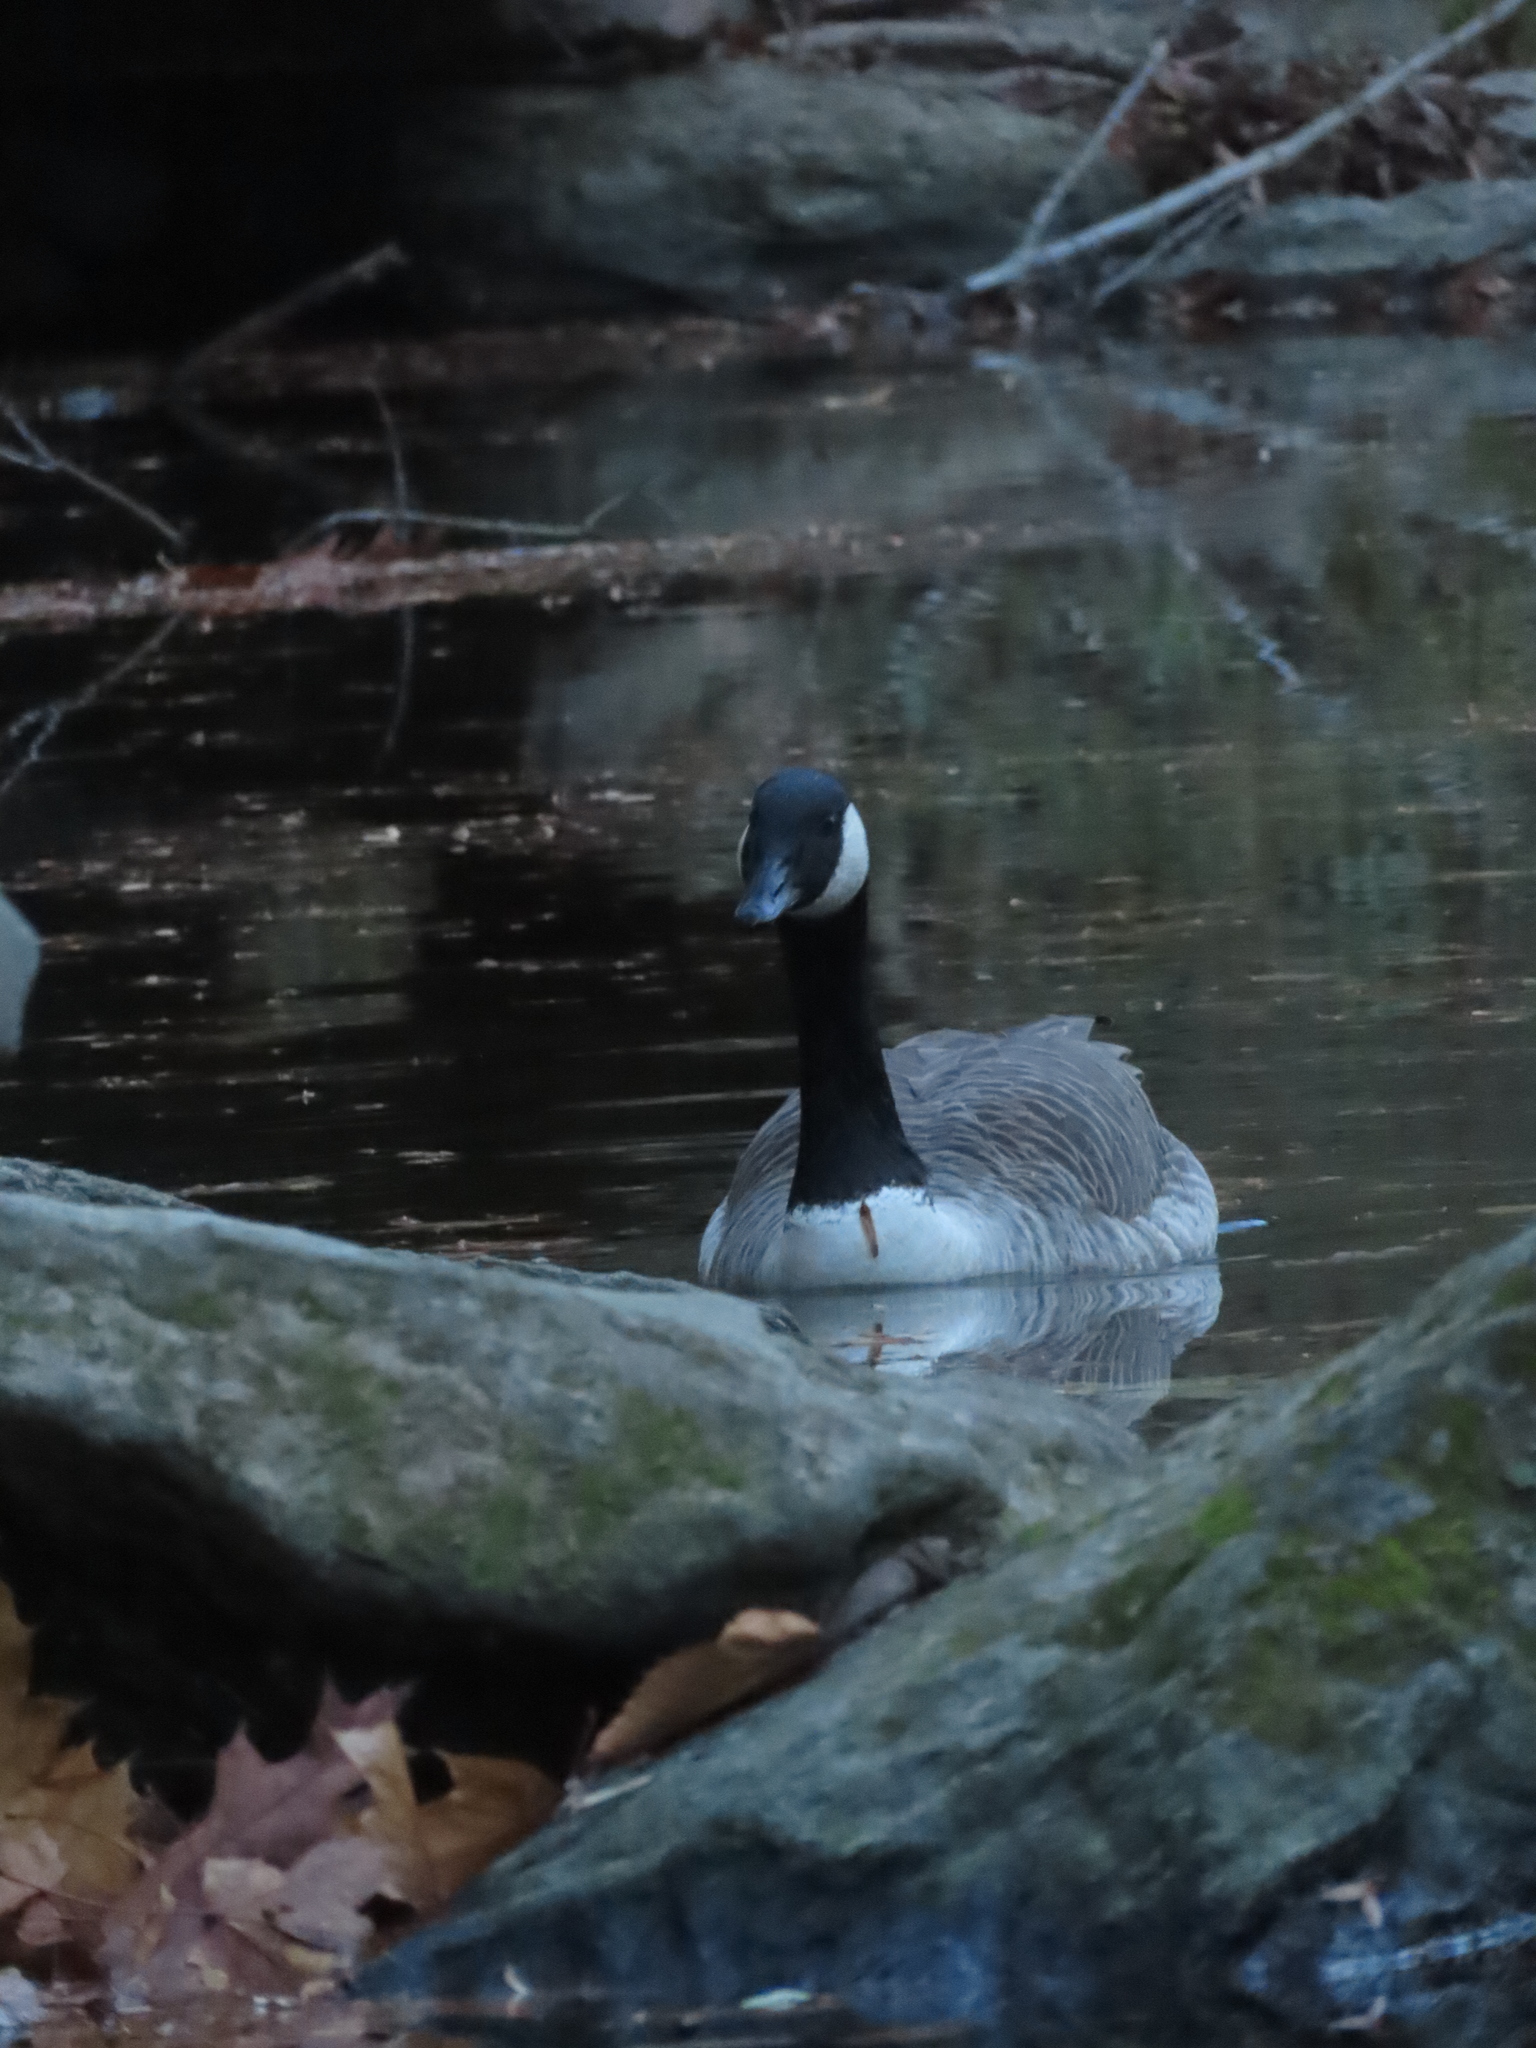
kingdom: Animalia
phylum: Chordata
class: Aves
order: Anseriformes
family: Anatidae
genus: Branta
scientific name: Branta canadensis
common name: Canada goose
